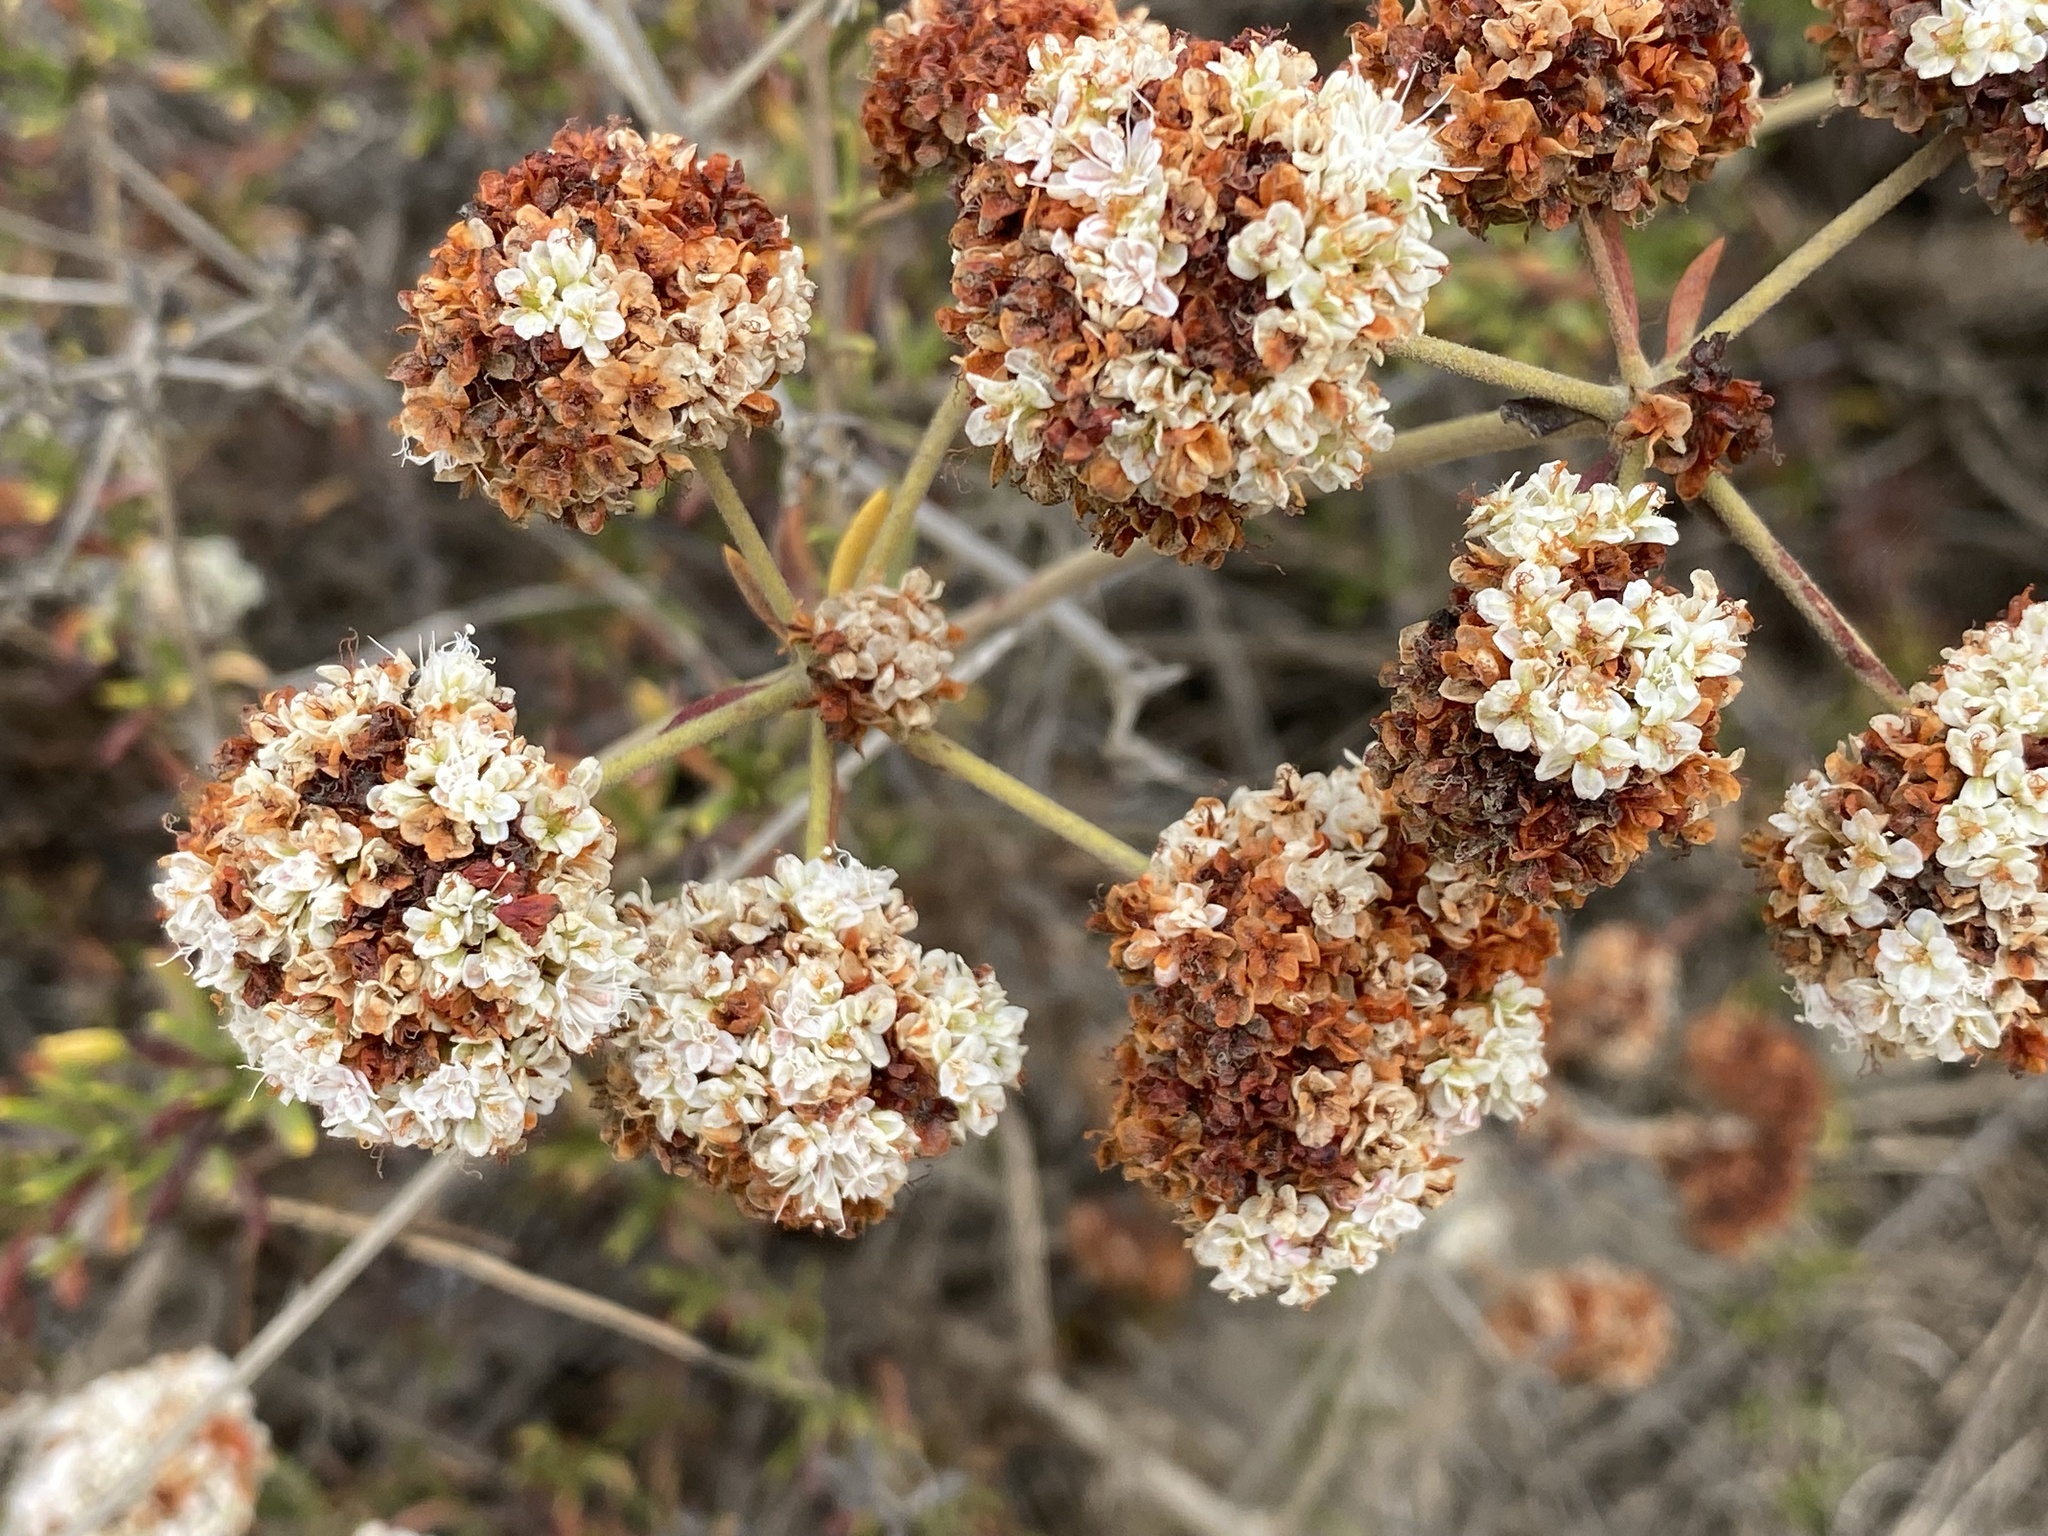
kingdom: Plantae
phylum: Tracheophyta
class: Magnoliopsida
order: Caryophyllales
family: Polygonaceae
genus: Eriogonum
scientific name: Eriogonum fasciculatum
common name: California wild buckwheat
